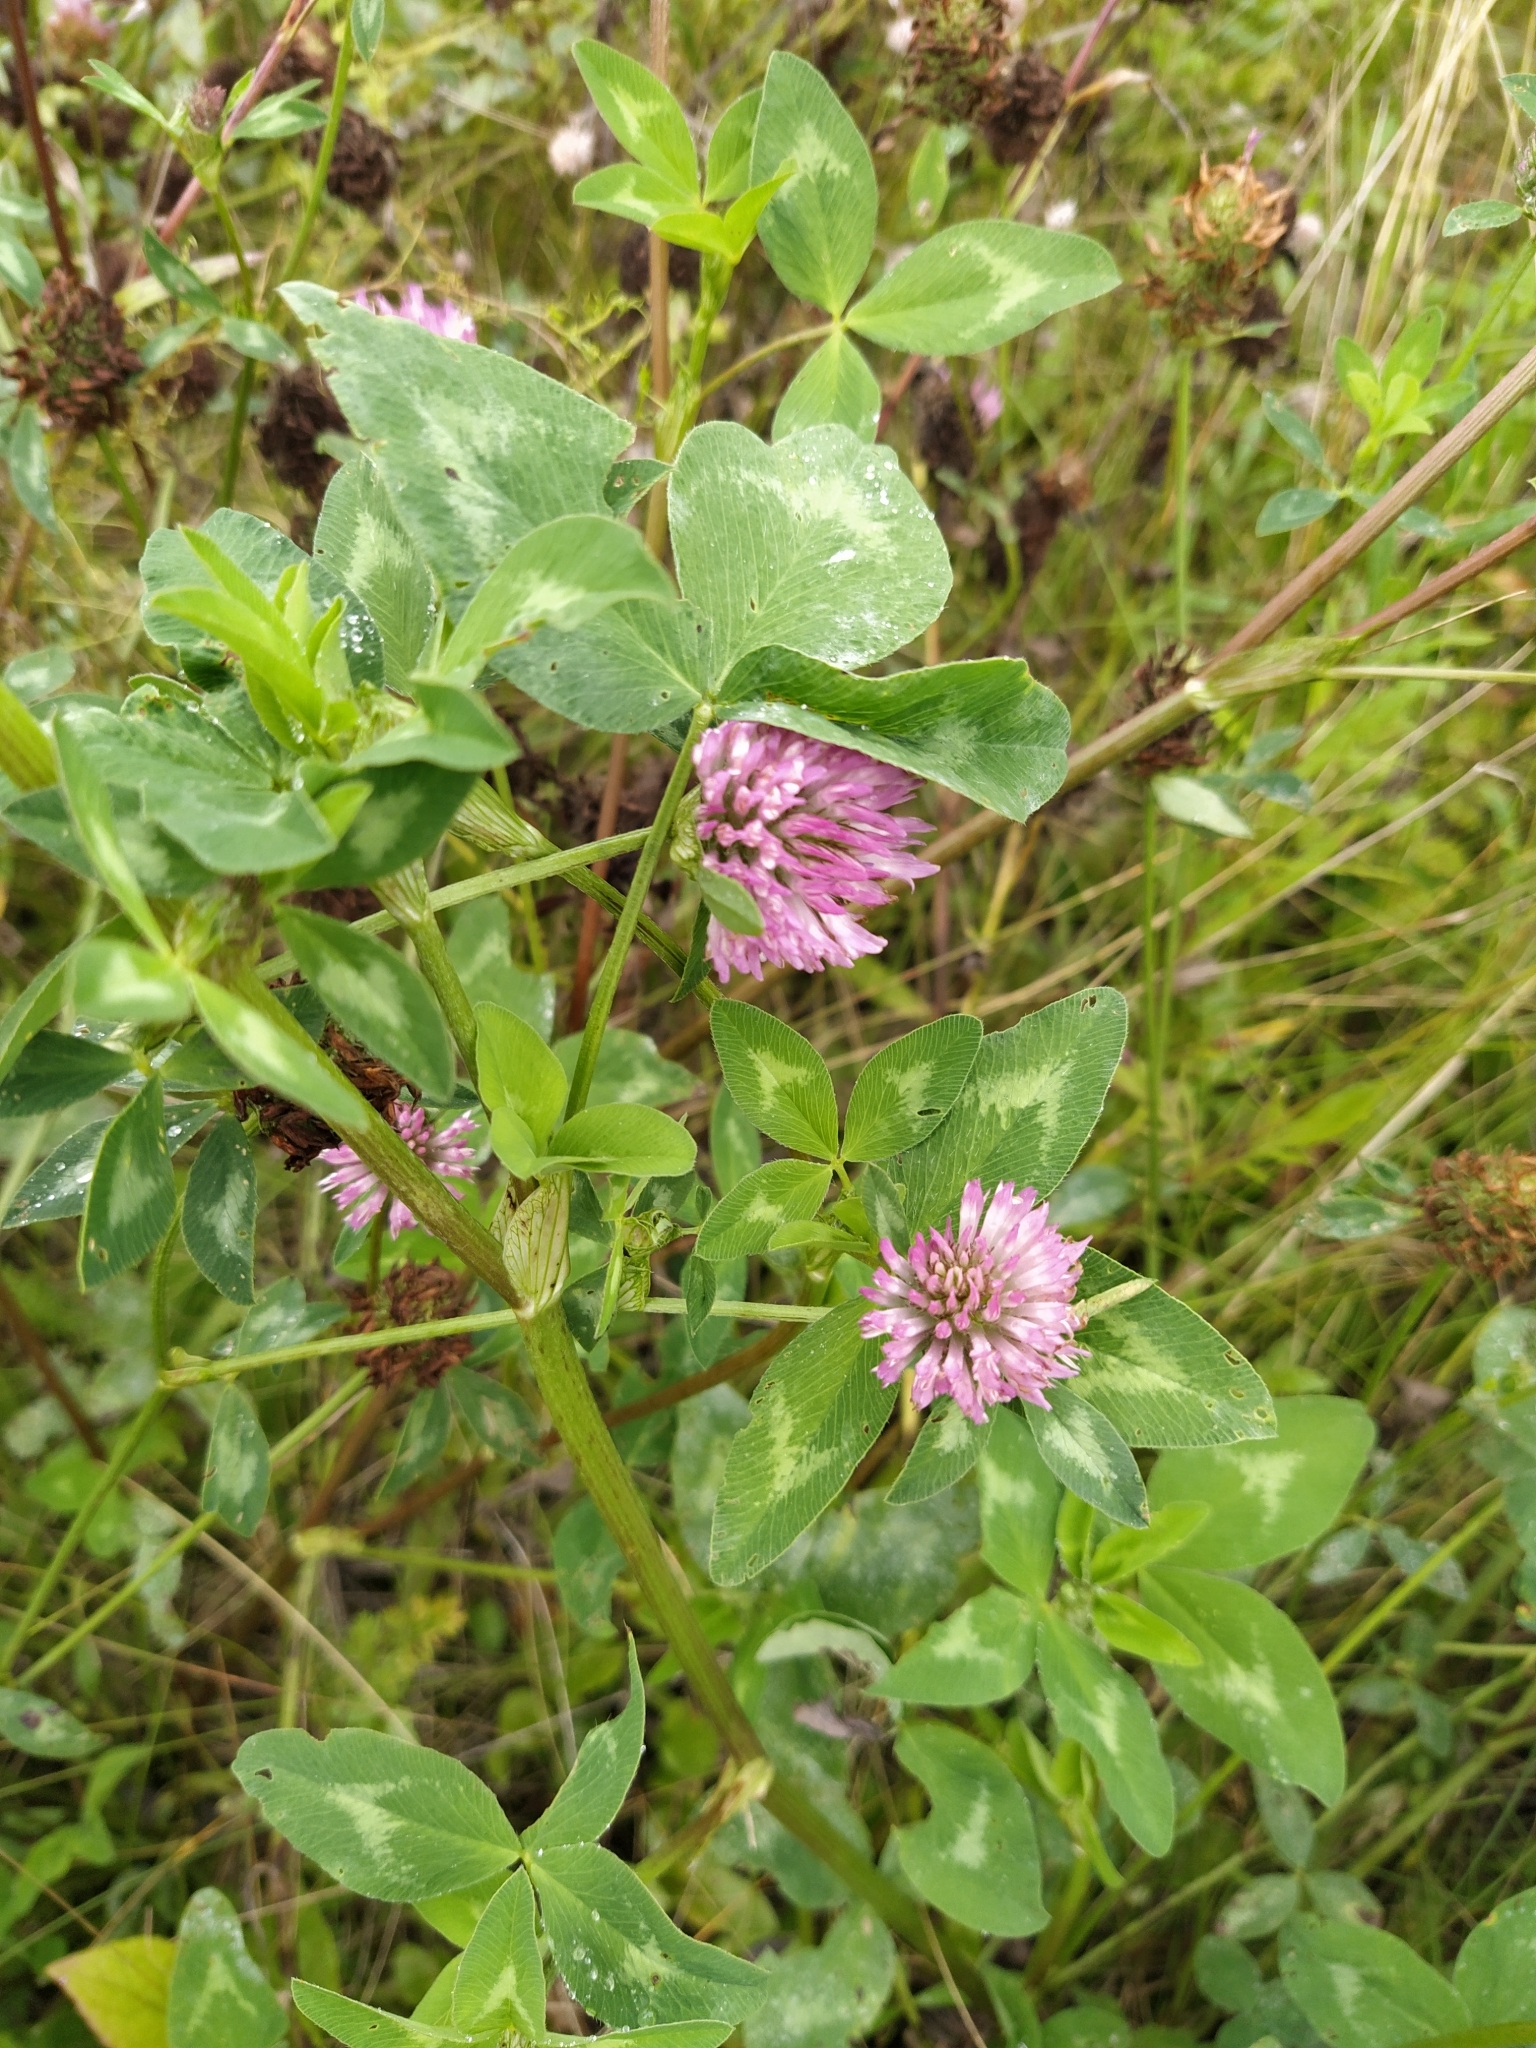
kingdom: Plantae
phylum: Tracheophyta
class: Magnoliopsida
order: Fabales
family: Fabaceae
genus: Trifolium
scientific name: Trifolium pratense
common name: Red clover
